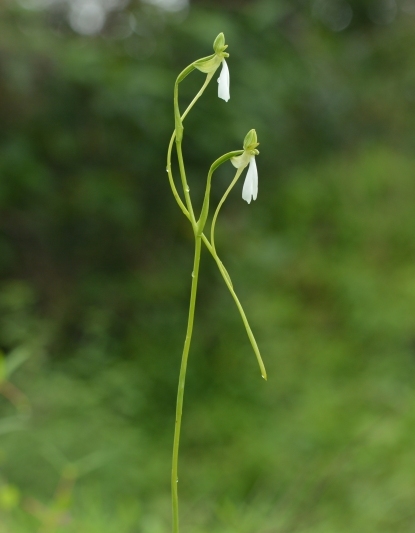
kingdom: Plantae
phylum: Tracheophyta
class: Liliopsida
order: Asparagales
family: Orchidaceae
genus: Habenaria
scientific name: Habenaria longicorniculata
